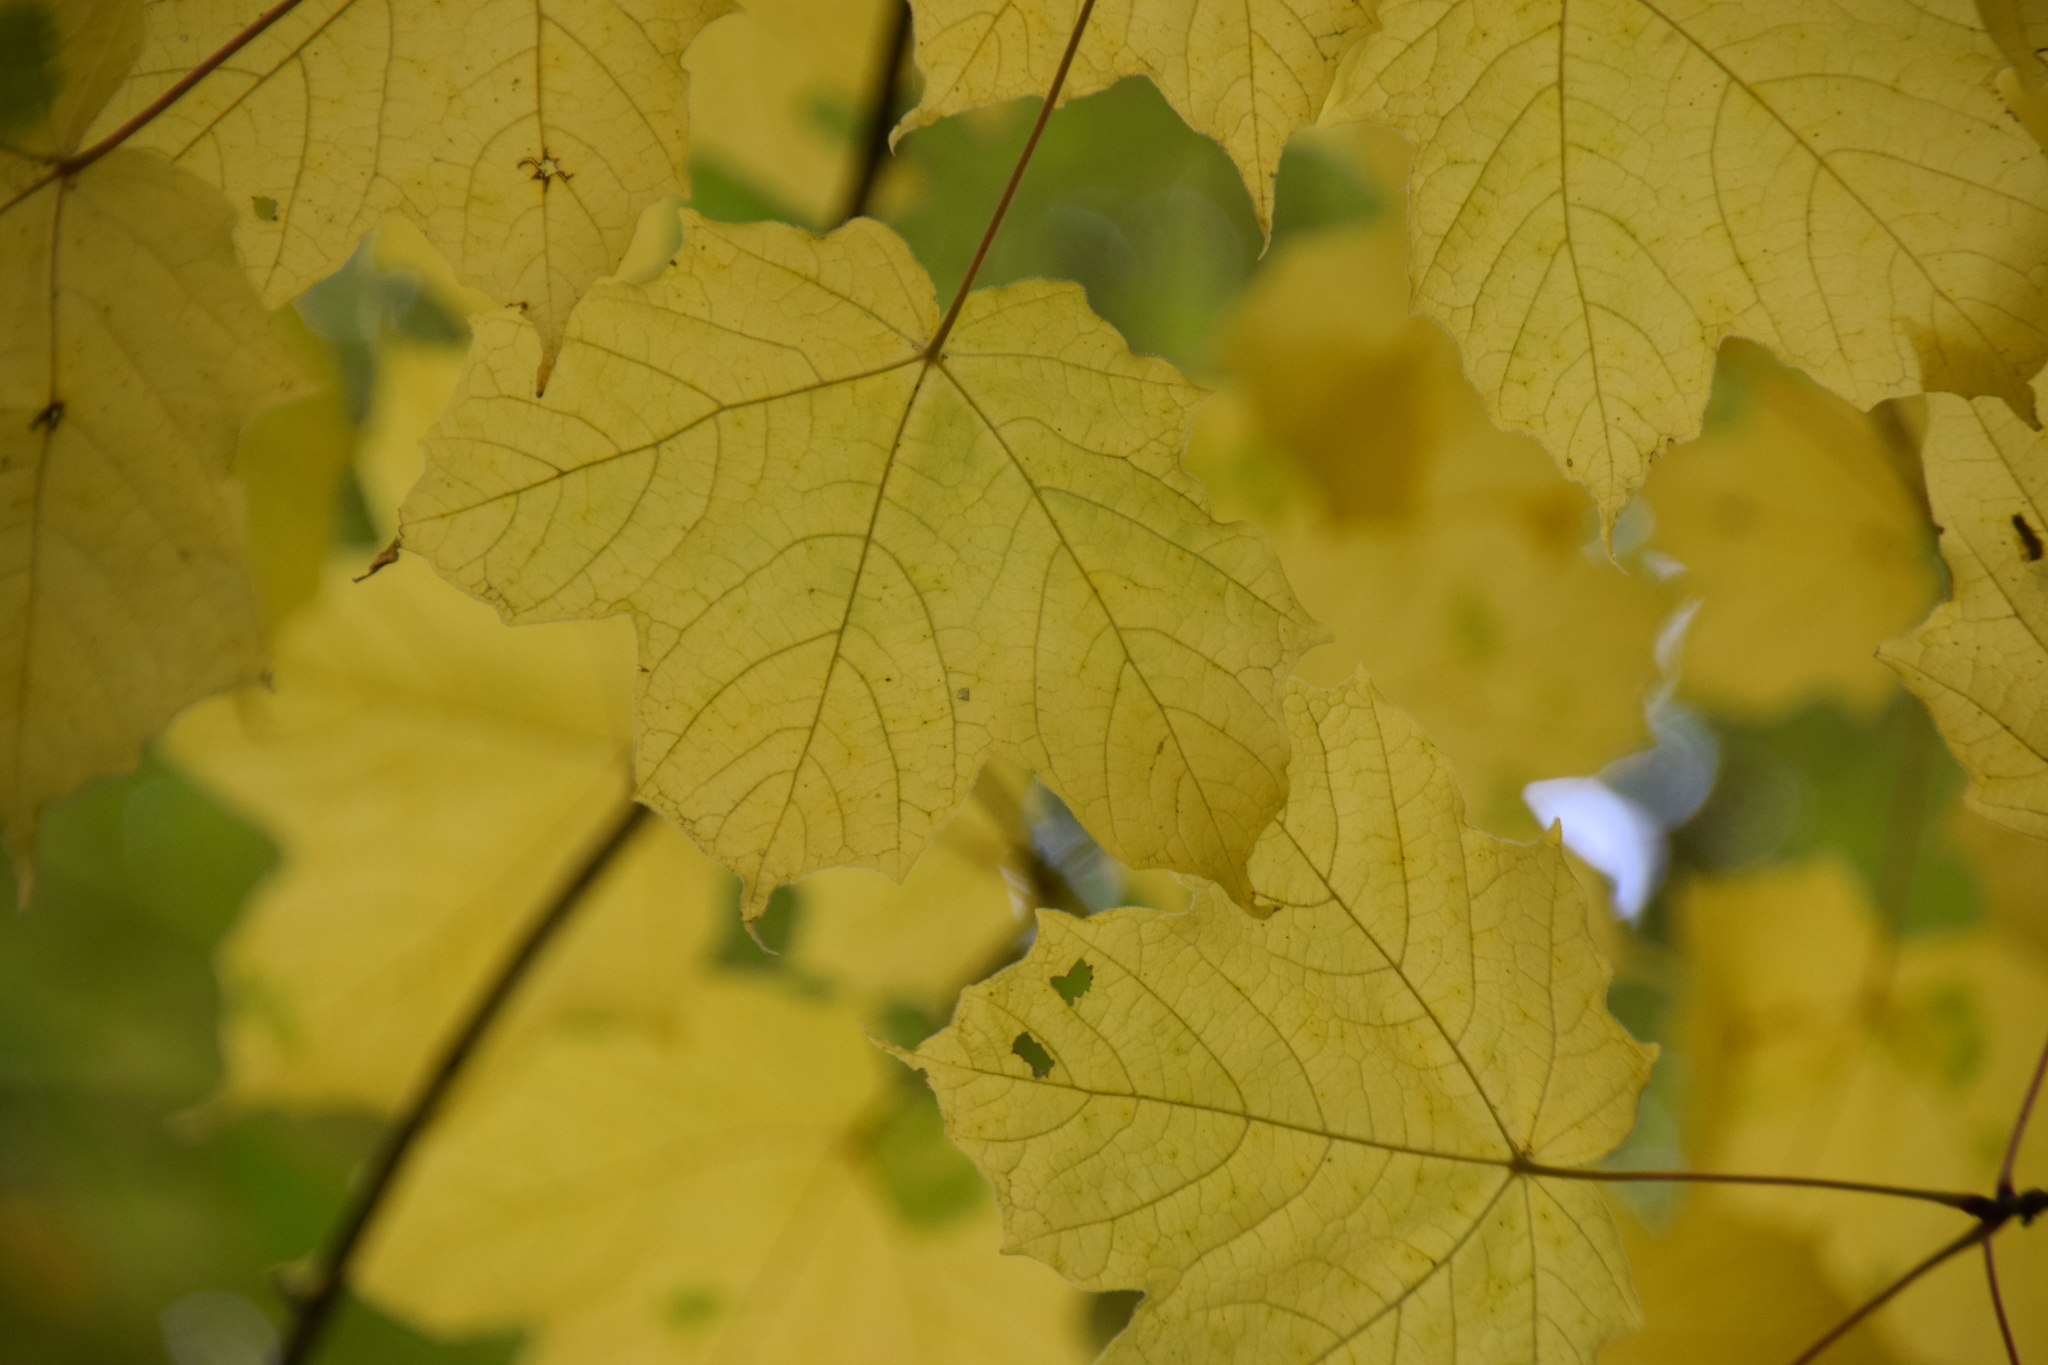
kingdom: Plantae
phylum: Tracheophyta
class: Magnoliopsida
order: Sapindales
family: Sapindaceae
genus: Acer
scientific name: Acer nigrum
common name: Black maple
